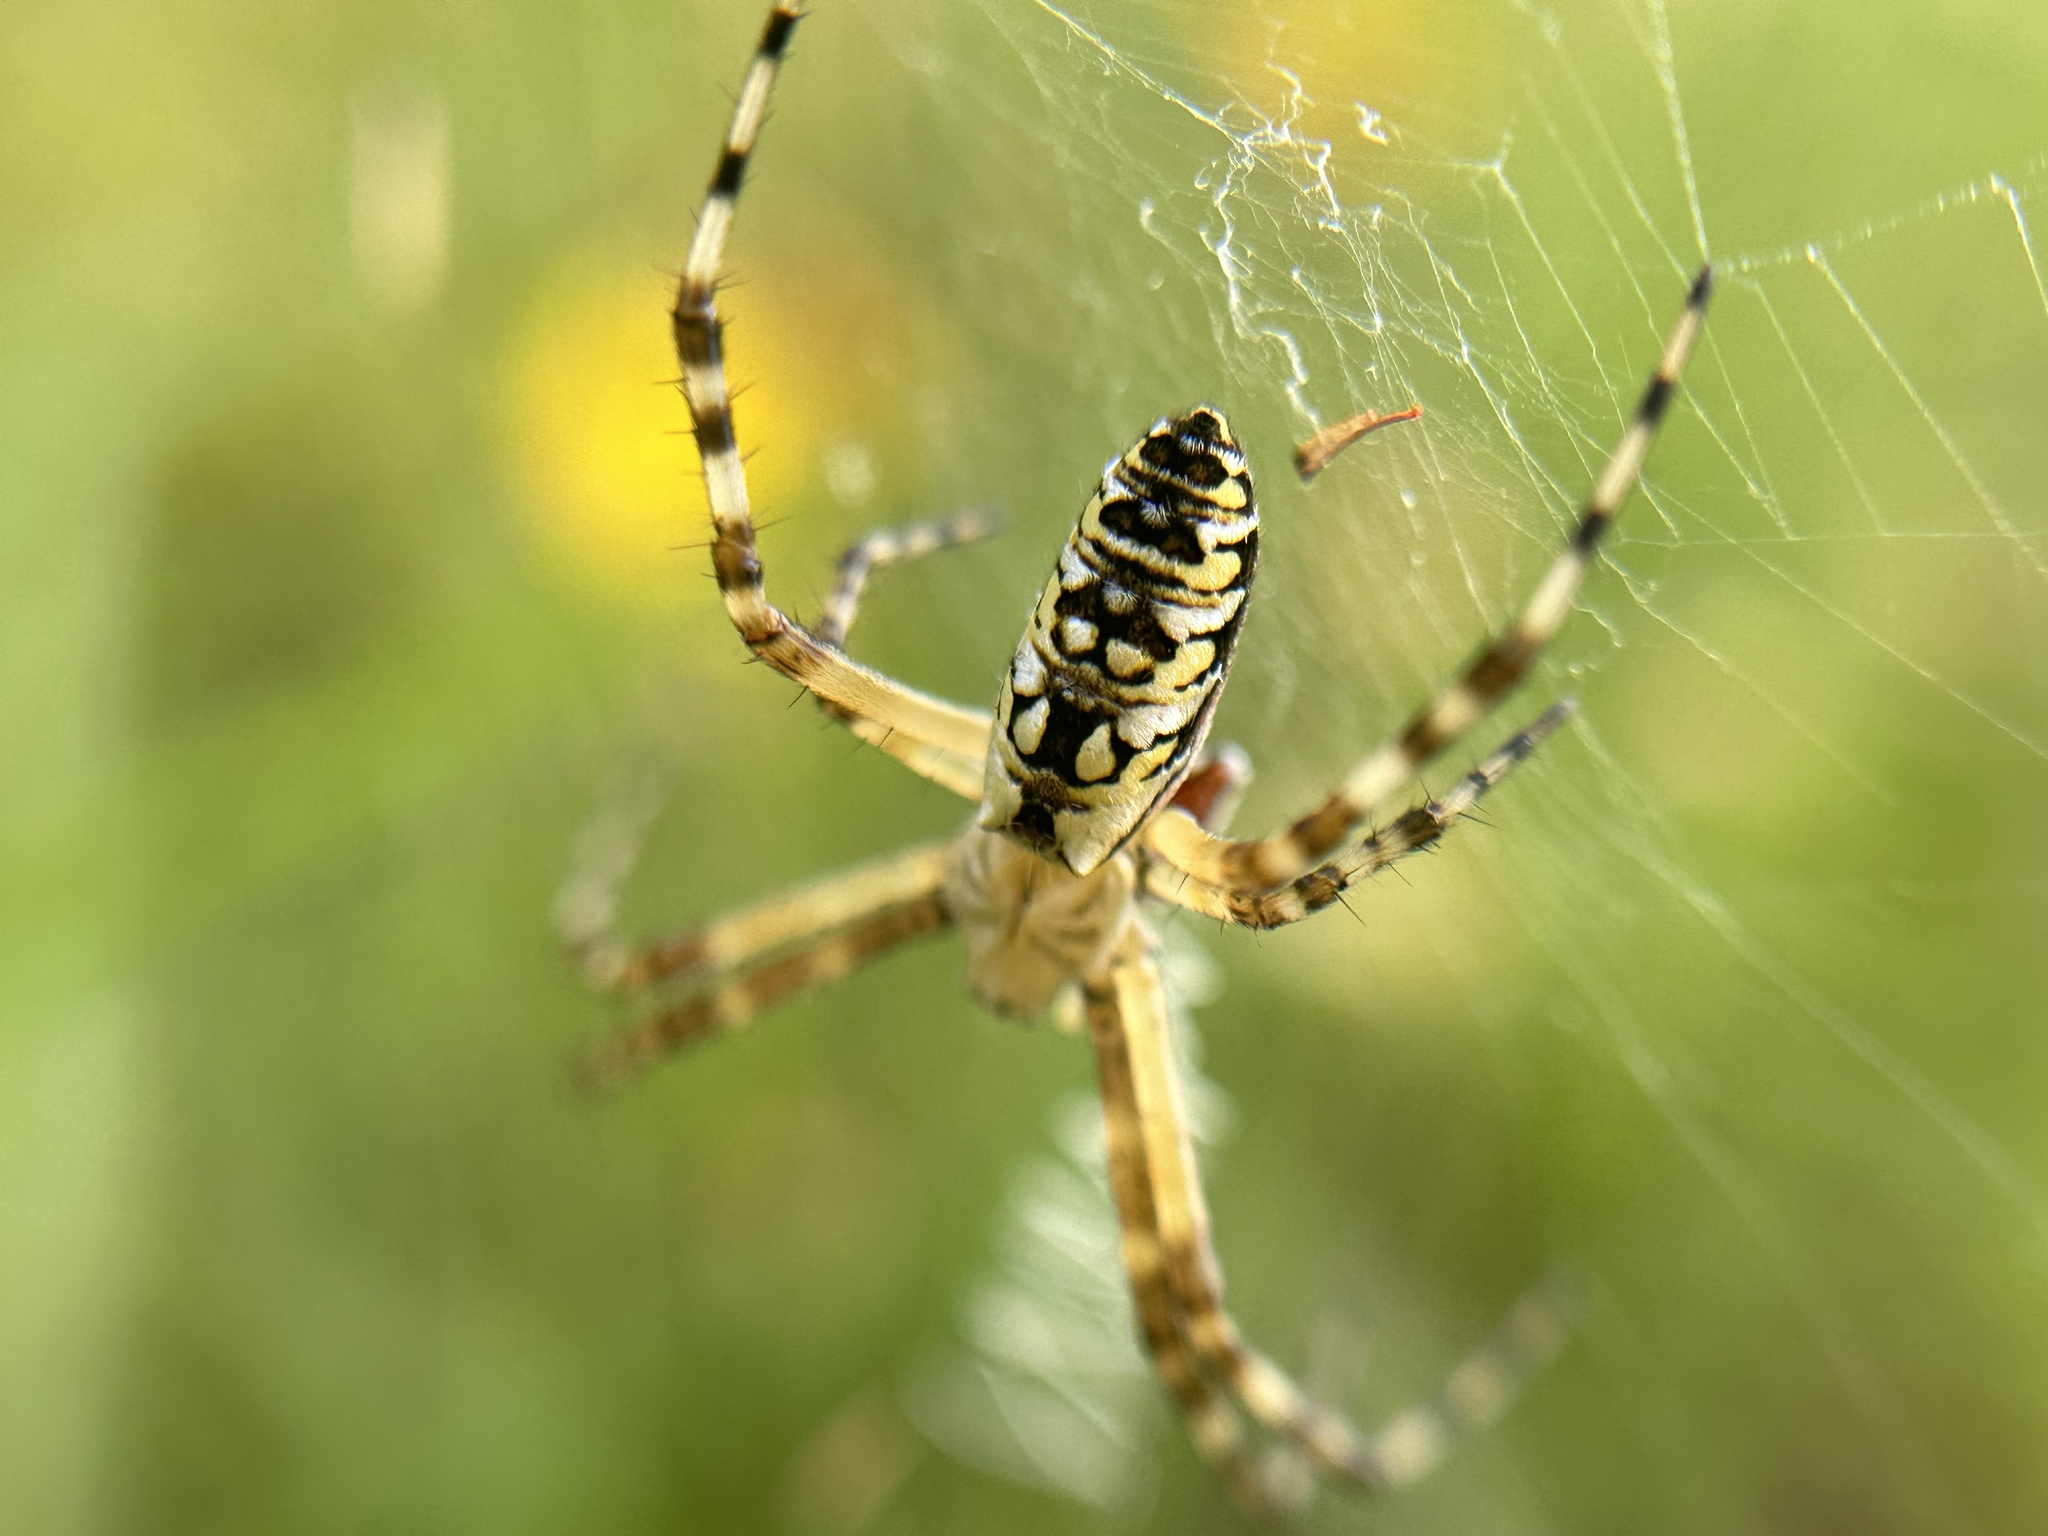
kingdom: Animalia
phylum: Arthropoda
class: Arachnida
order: Araneae
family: Araneidae
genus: Argiope
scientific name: Argiope aurantia
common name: Orb weavers
